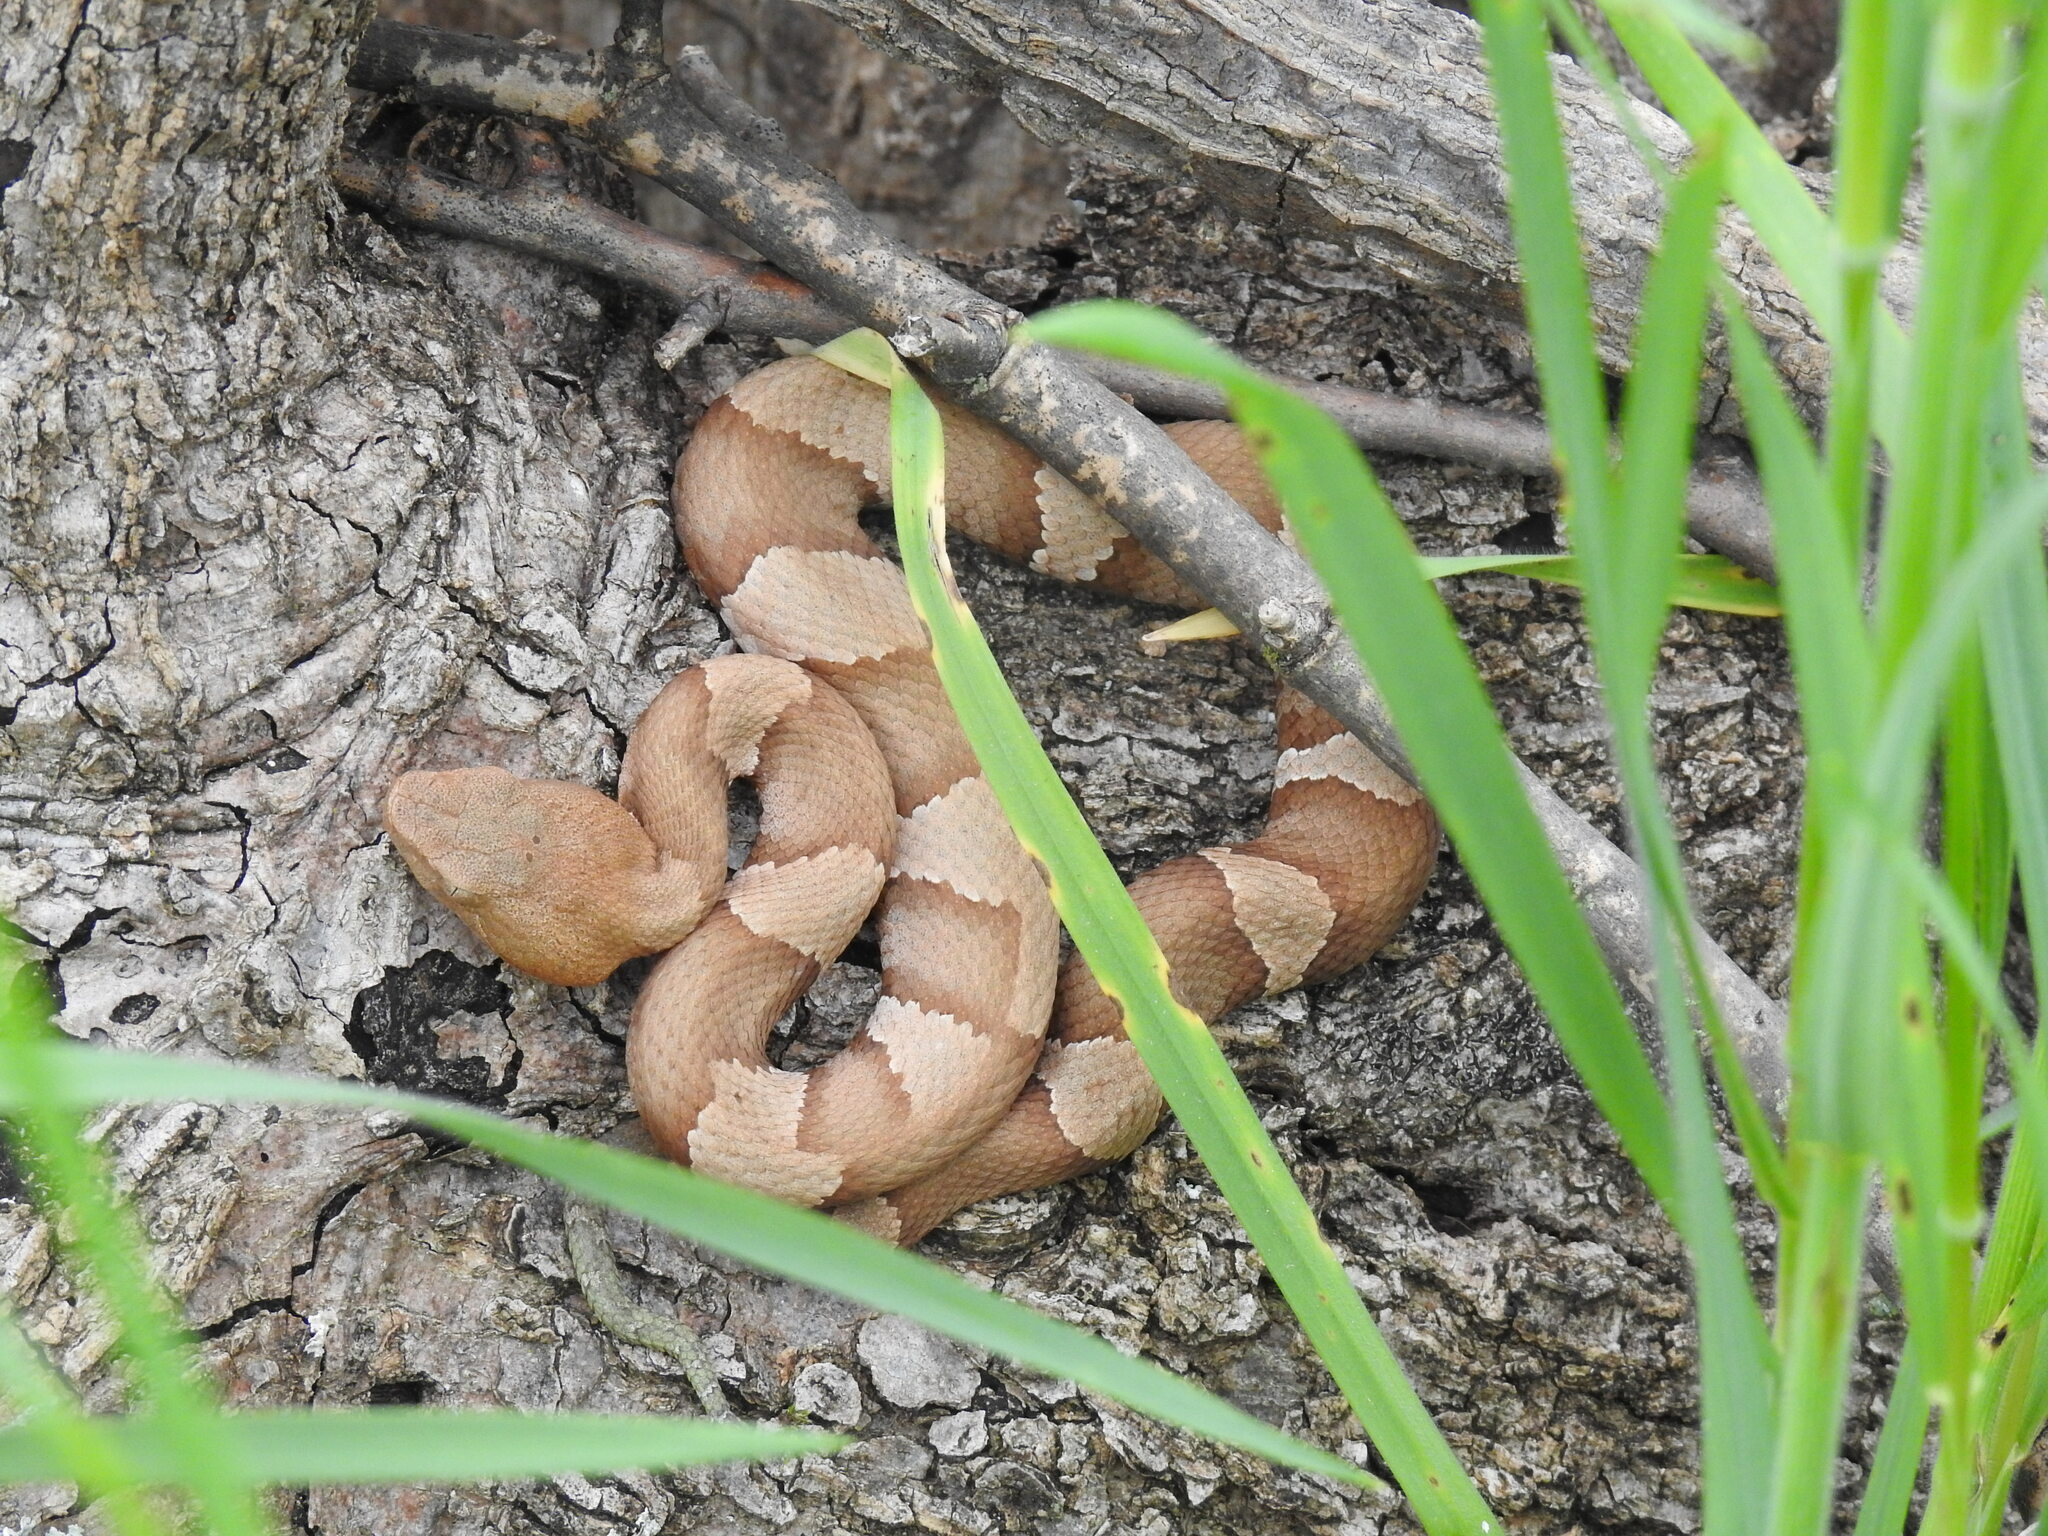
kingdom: Animalia
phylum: Chordata
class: Squamata
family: Viperidae
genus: Agkistrodon
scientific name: Agkistrodon laticinctus
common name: Broad-banded copperhead
